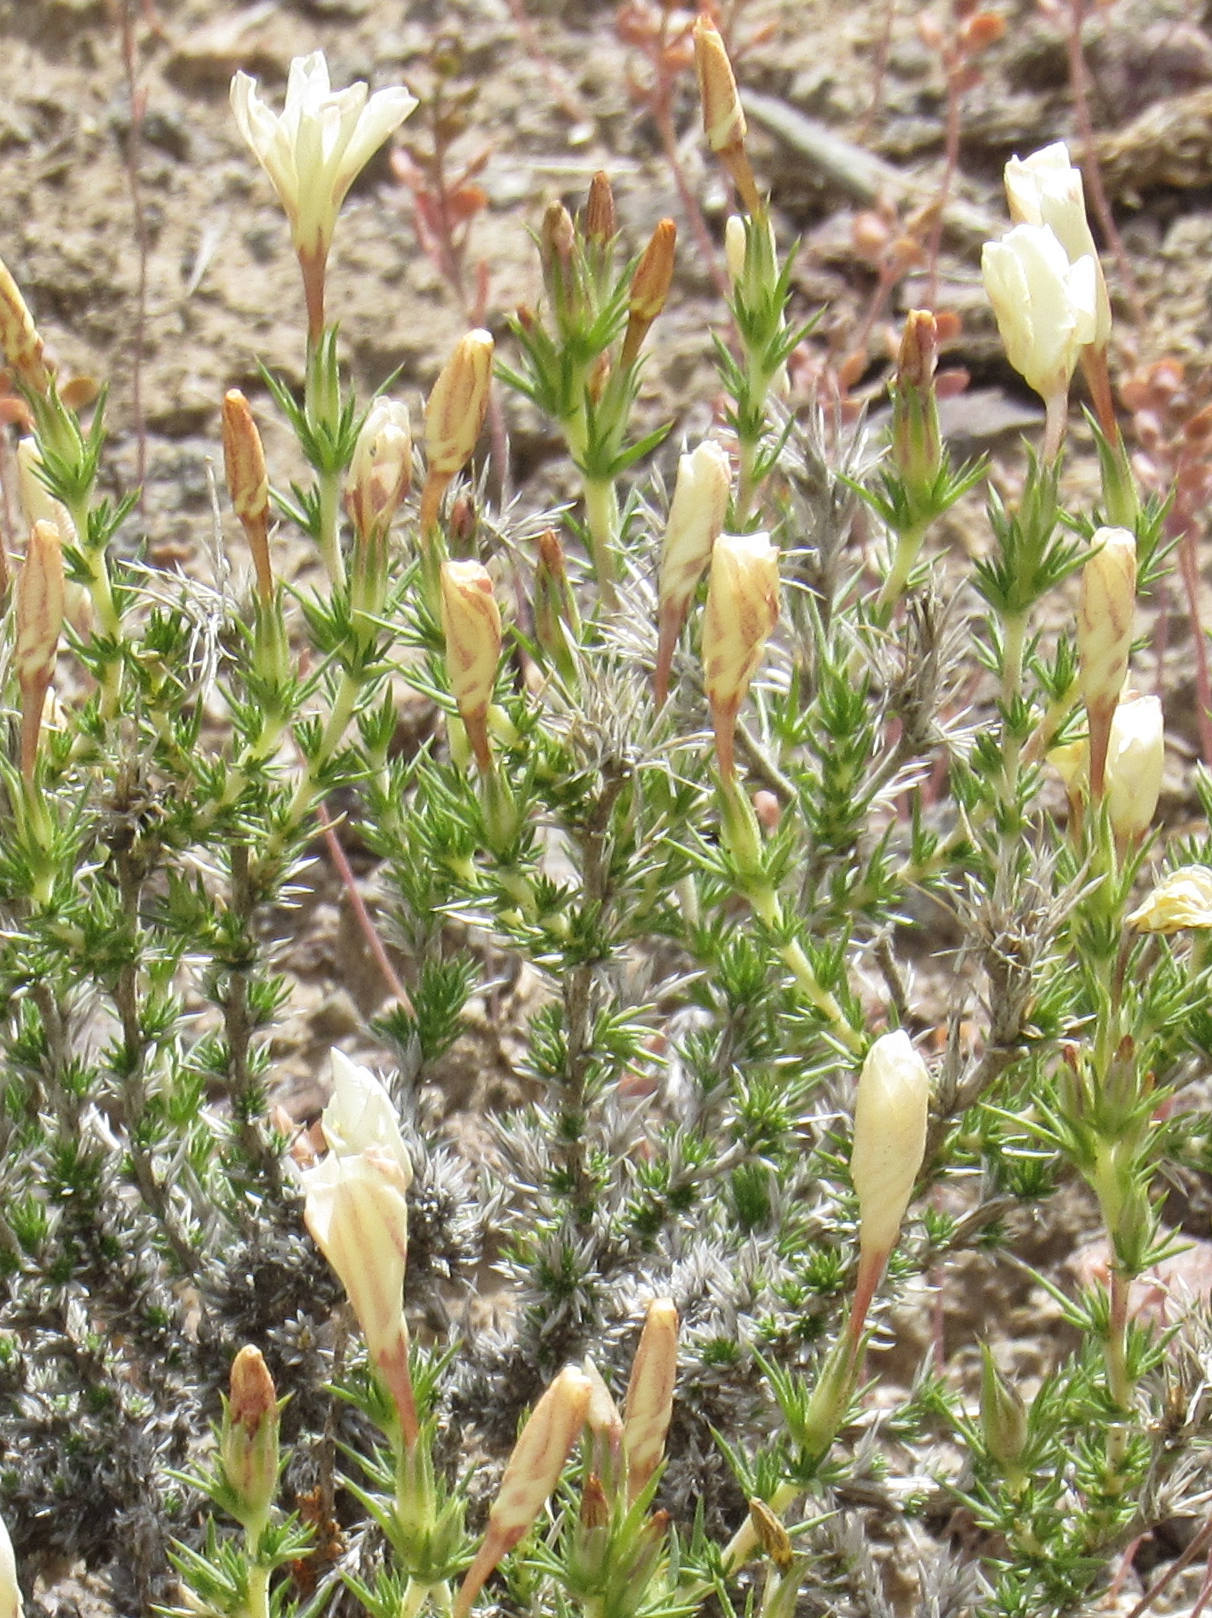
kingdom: Plantae
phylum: Tracheophyta
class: Magnoliopsida
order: Ericales
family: Polemoniaceae
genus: Linanthus
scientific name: Linanthus pungens
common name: Granite prickly phlox
